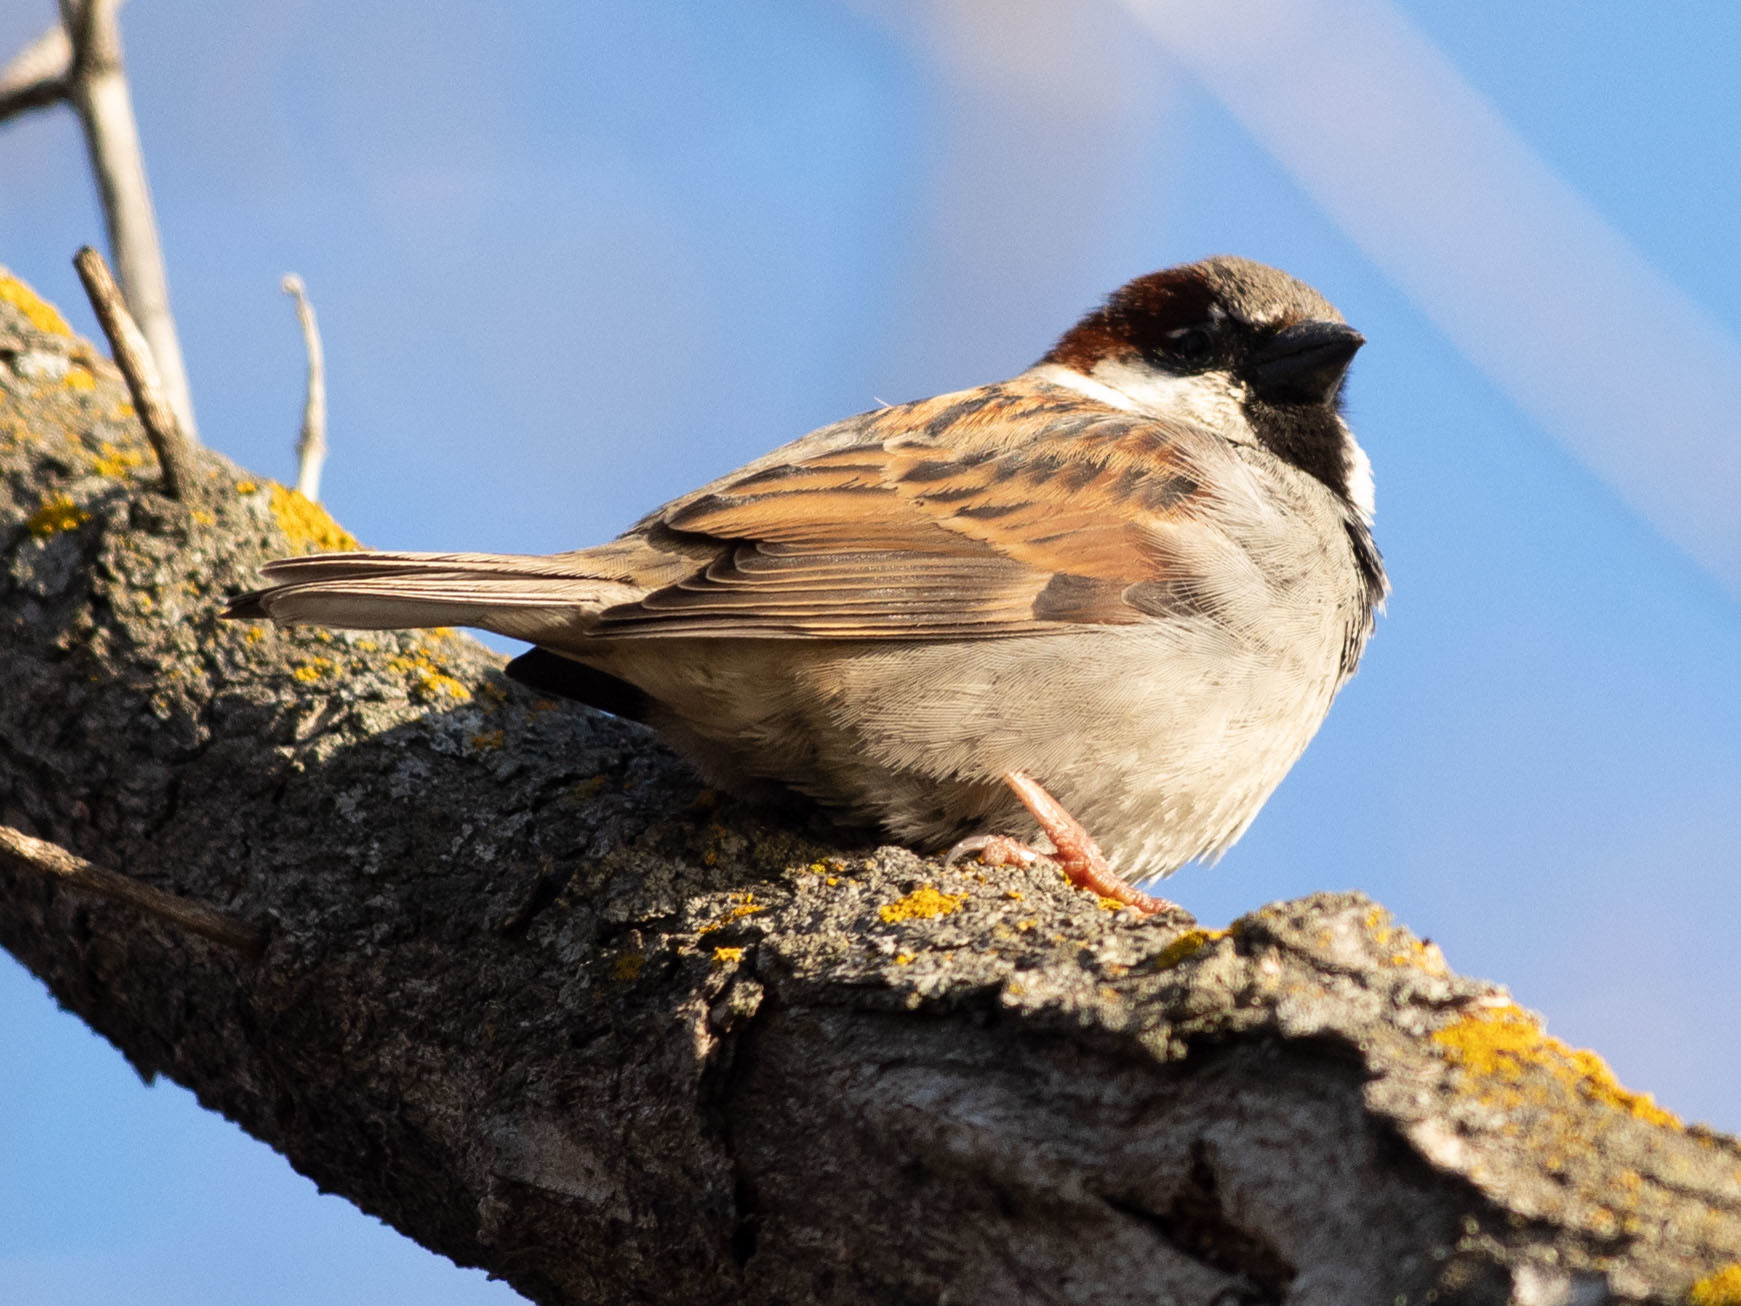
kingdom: Animalia
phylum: Chordata
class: Aves
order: Passeriformes
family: Passeridae
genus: Passer
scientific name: Passer domesticus
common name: House sparrow
